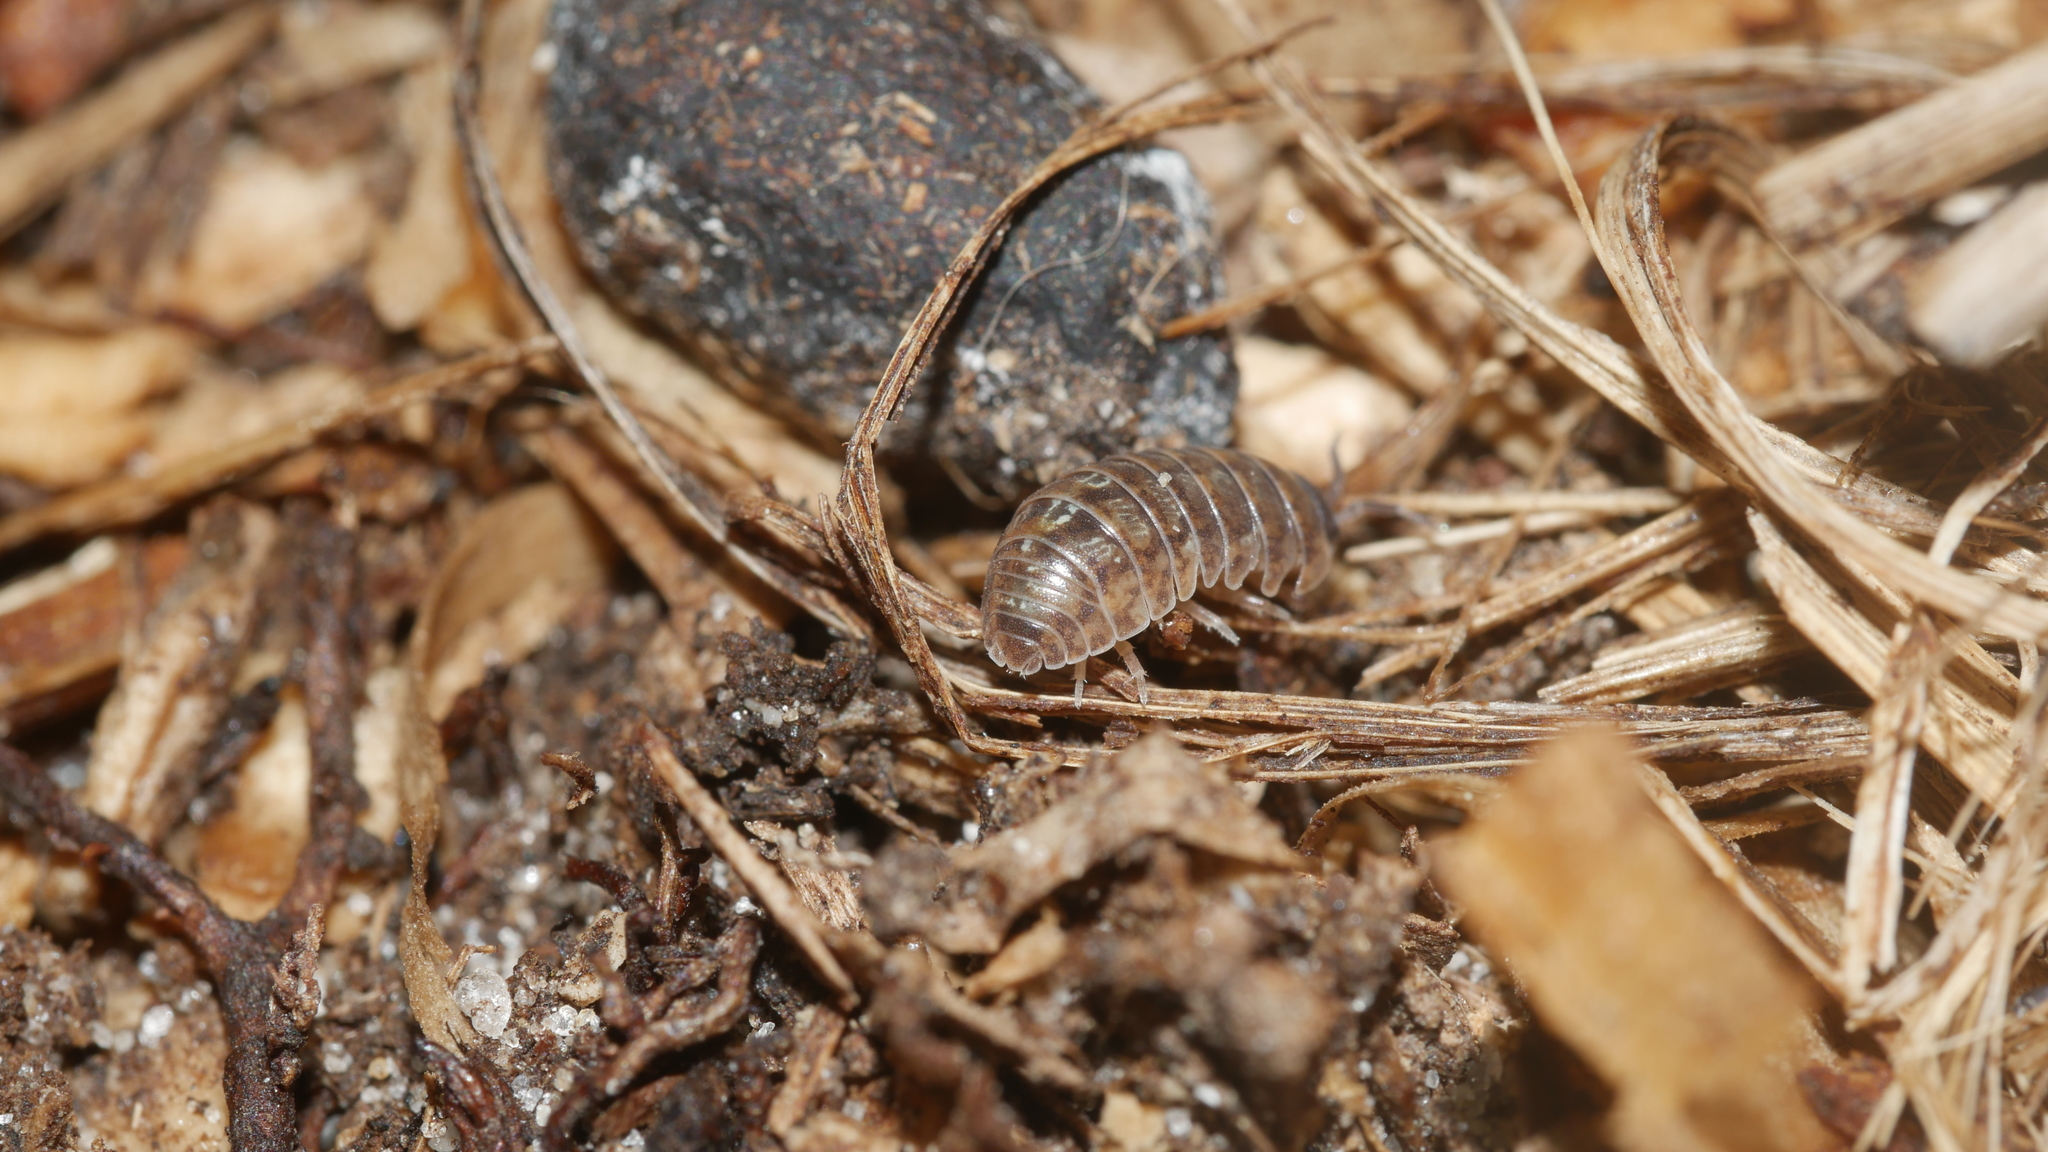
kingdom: Animalia
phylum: Arthropoda
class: Malacostraca
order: Isopoda
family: Armadillidiidae
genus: Armadillidium
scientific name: Armadillidium vulgare
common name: Common pill woodlouse
